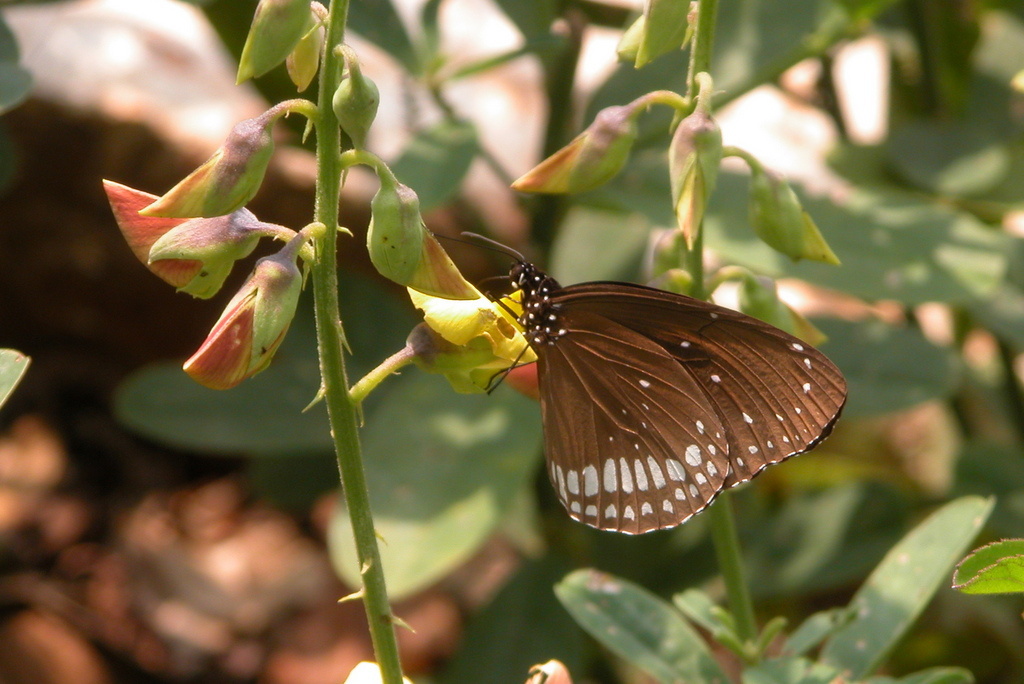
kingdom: Animalia
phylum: Arthropoda
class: Insecta
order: Lepidoptera
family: Nymphalidae
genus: Euploea
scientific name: Euploea core
